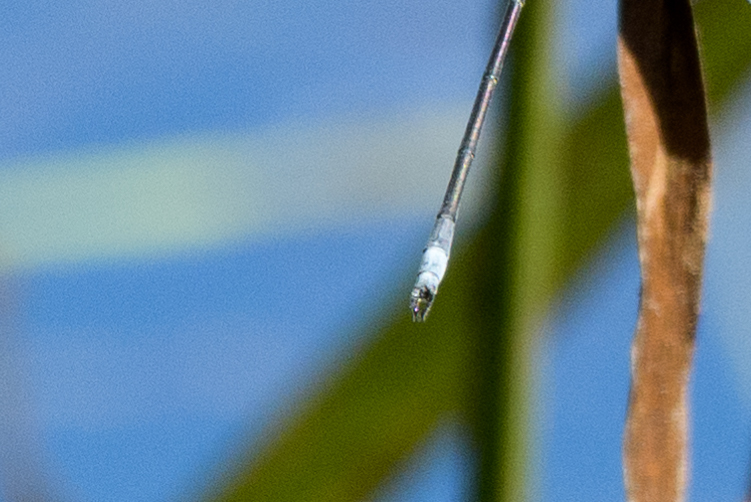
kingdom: Animalia
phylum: Arthropoda
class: Insecta
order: Odonata
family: Lestidae
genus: Lestes
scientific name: Lestes vigilax
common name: Swamp spreadwing
